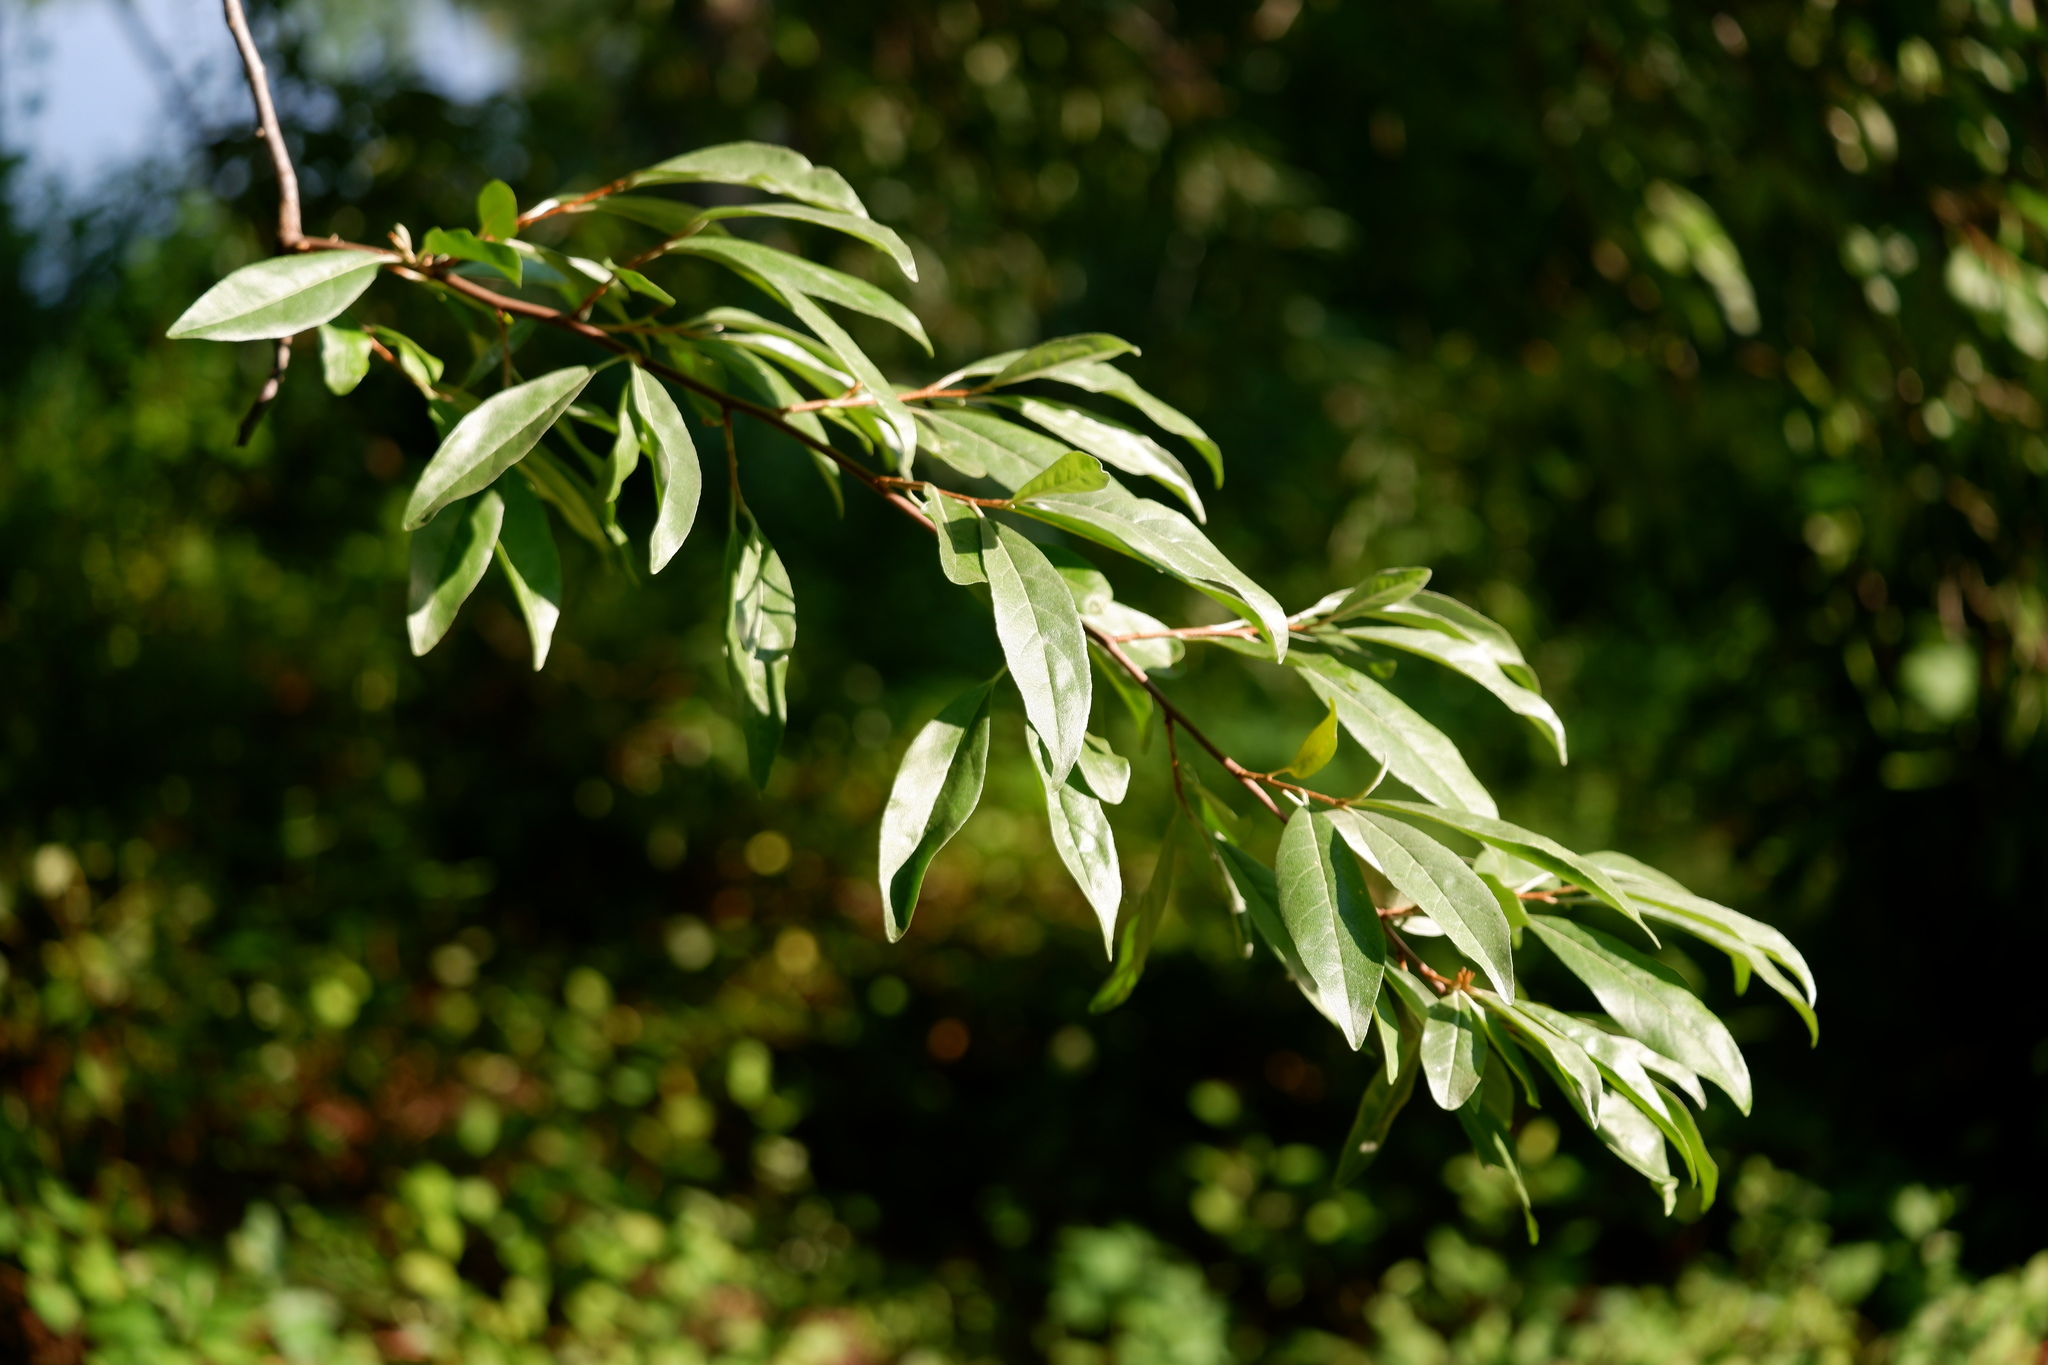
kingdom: Plantae
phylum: Tracheophyta
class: Magnoliopsida
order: Rosales
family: Elaeagnaceae
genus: Elaeagnus
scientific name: Elaeagnus umbellata
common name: Autumn olive
